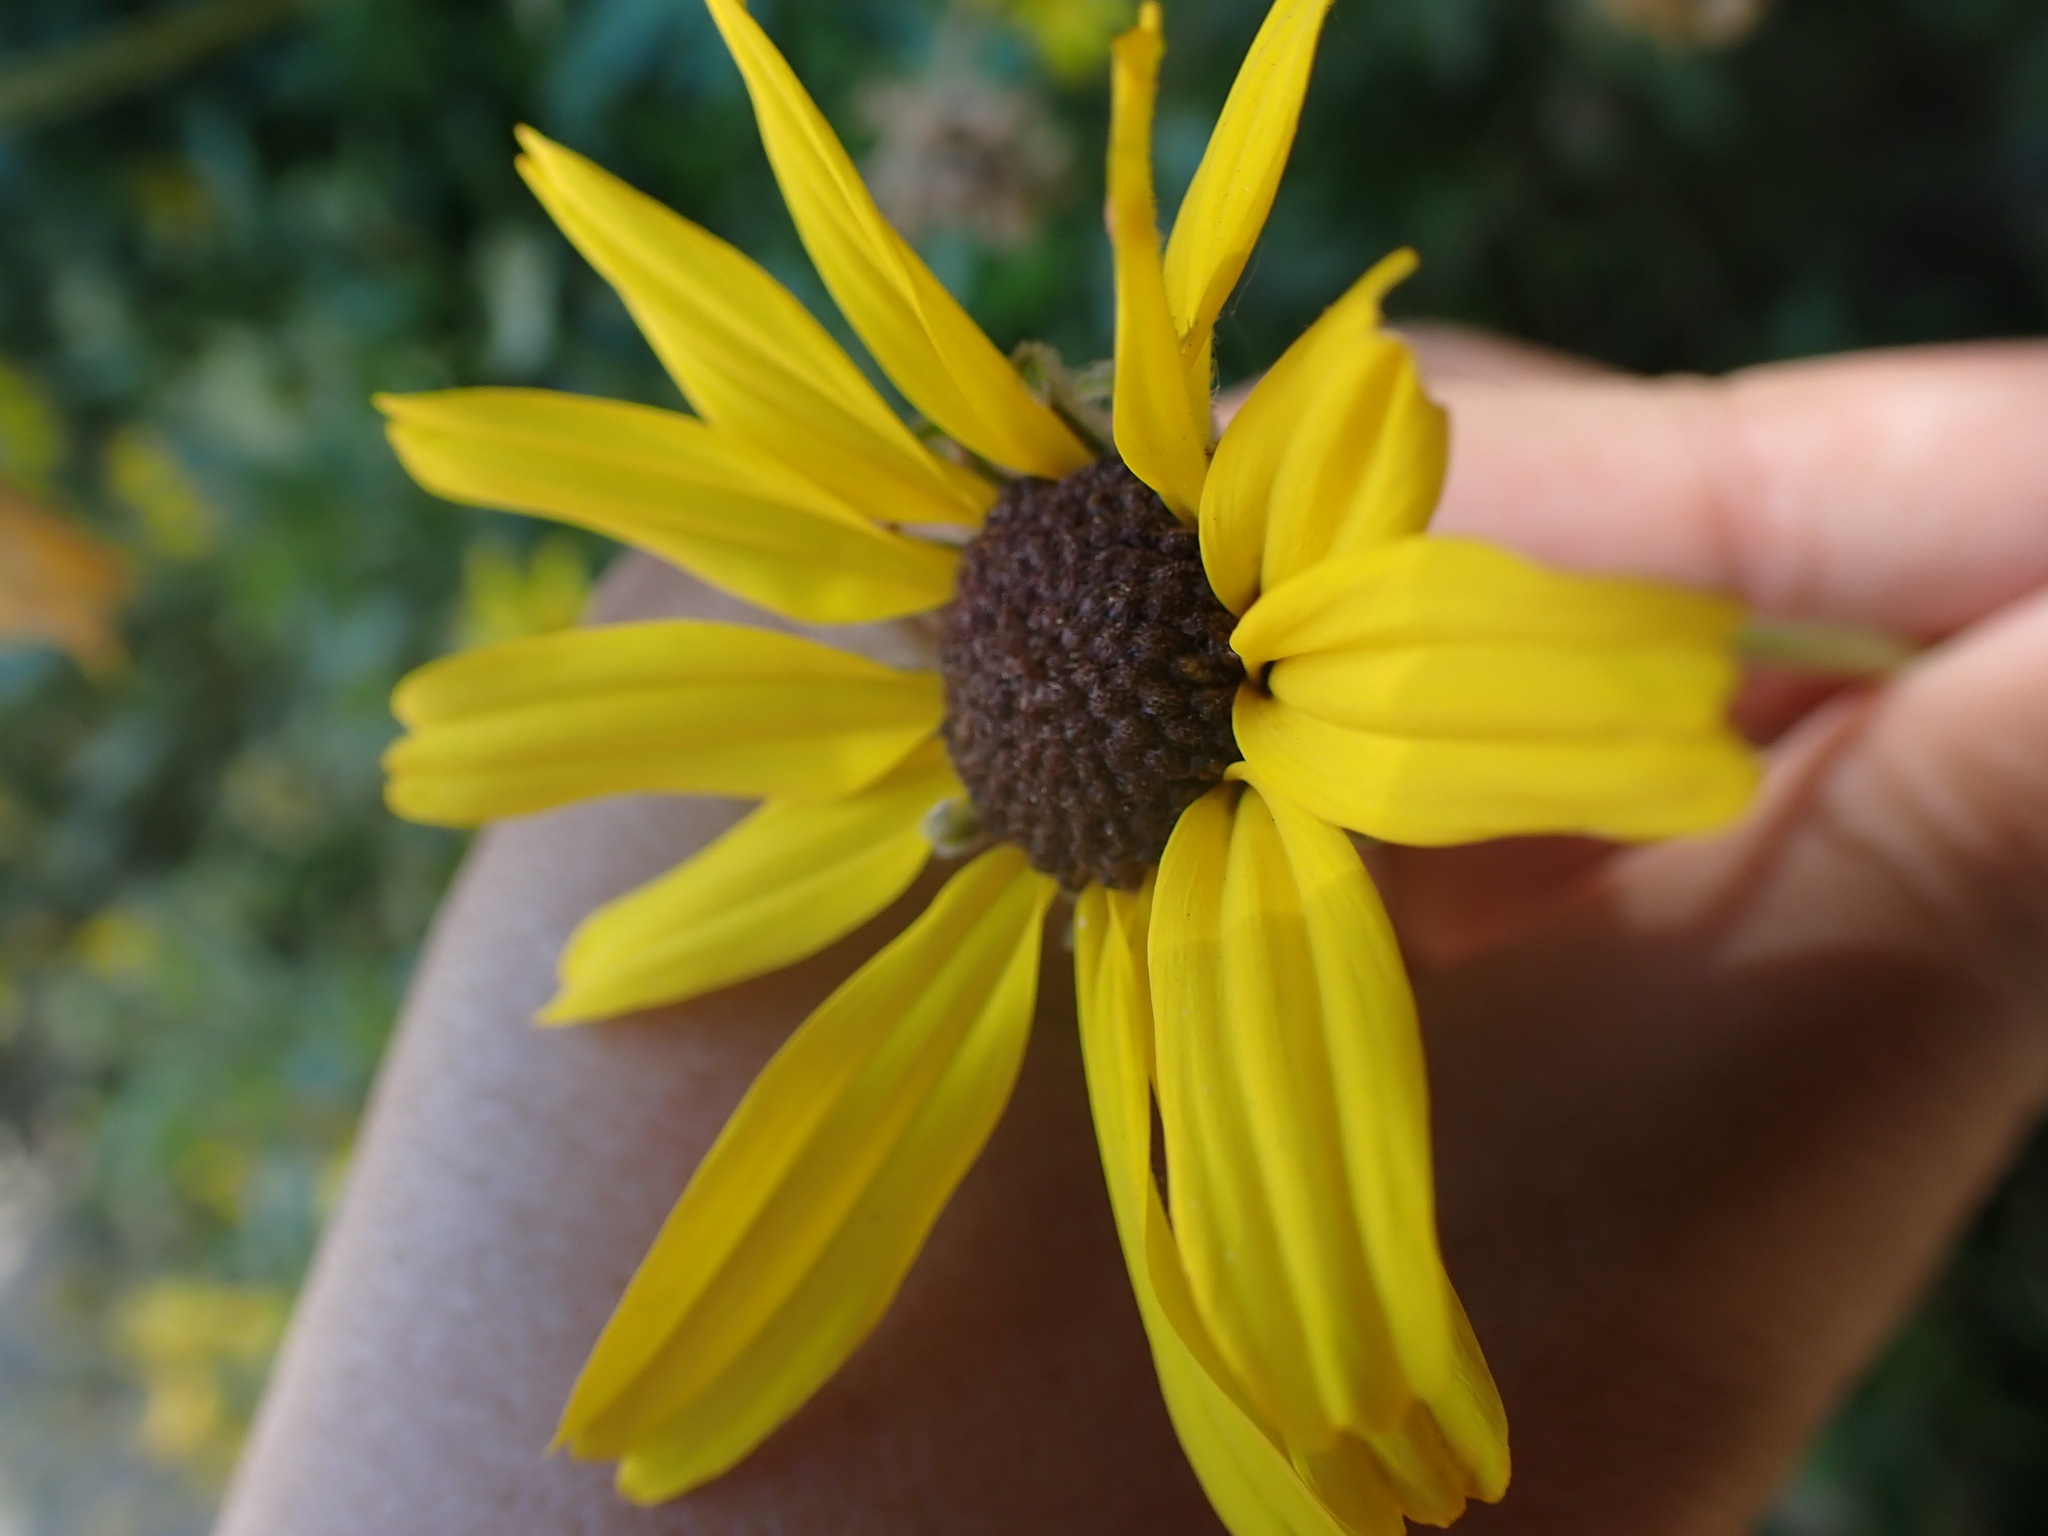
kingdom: Plantae
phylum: Tracheophyta
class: Magnoliopsida
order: Asterales
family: Asteraceae
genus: Encelia
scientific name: Encelia californica
